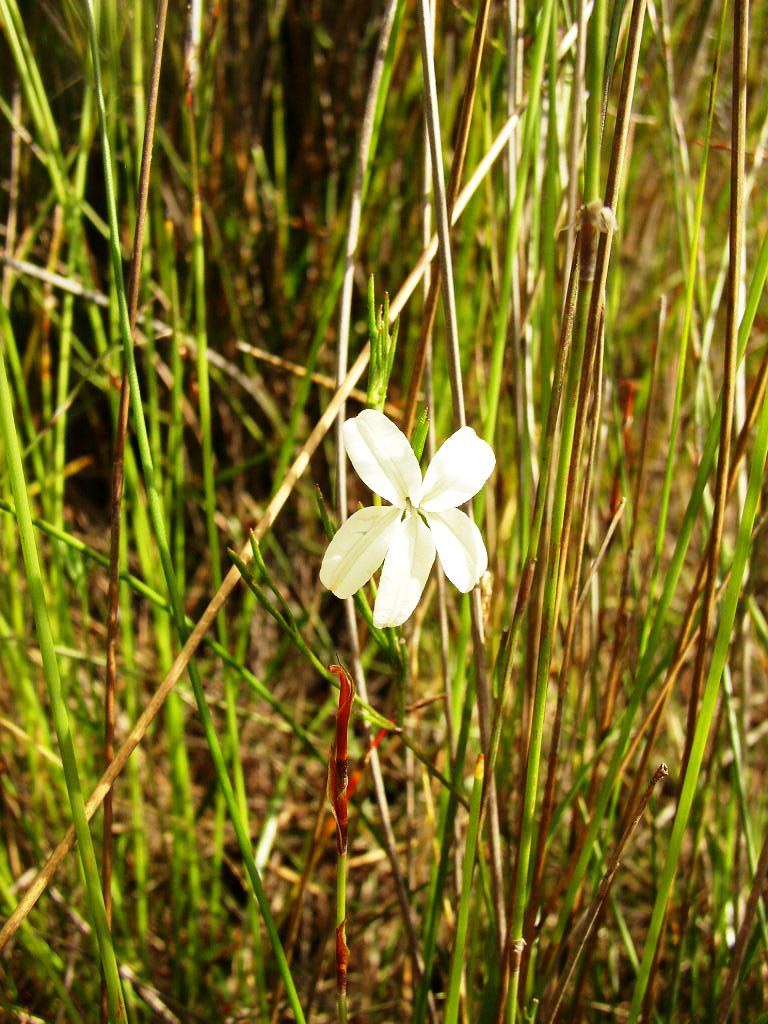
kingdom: Plantae
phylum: Tracheophyta
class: Magnoliopsida
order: Asterales
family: Goodeniaceae
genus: Scaevola
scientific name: Scaevola filifolia
